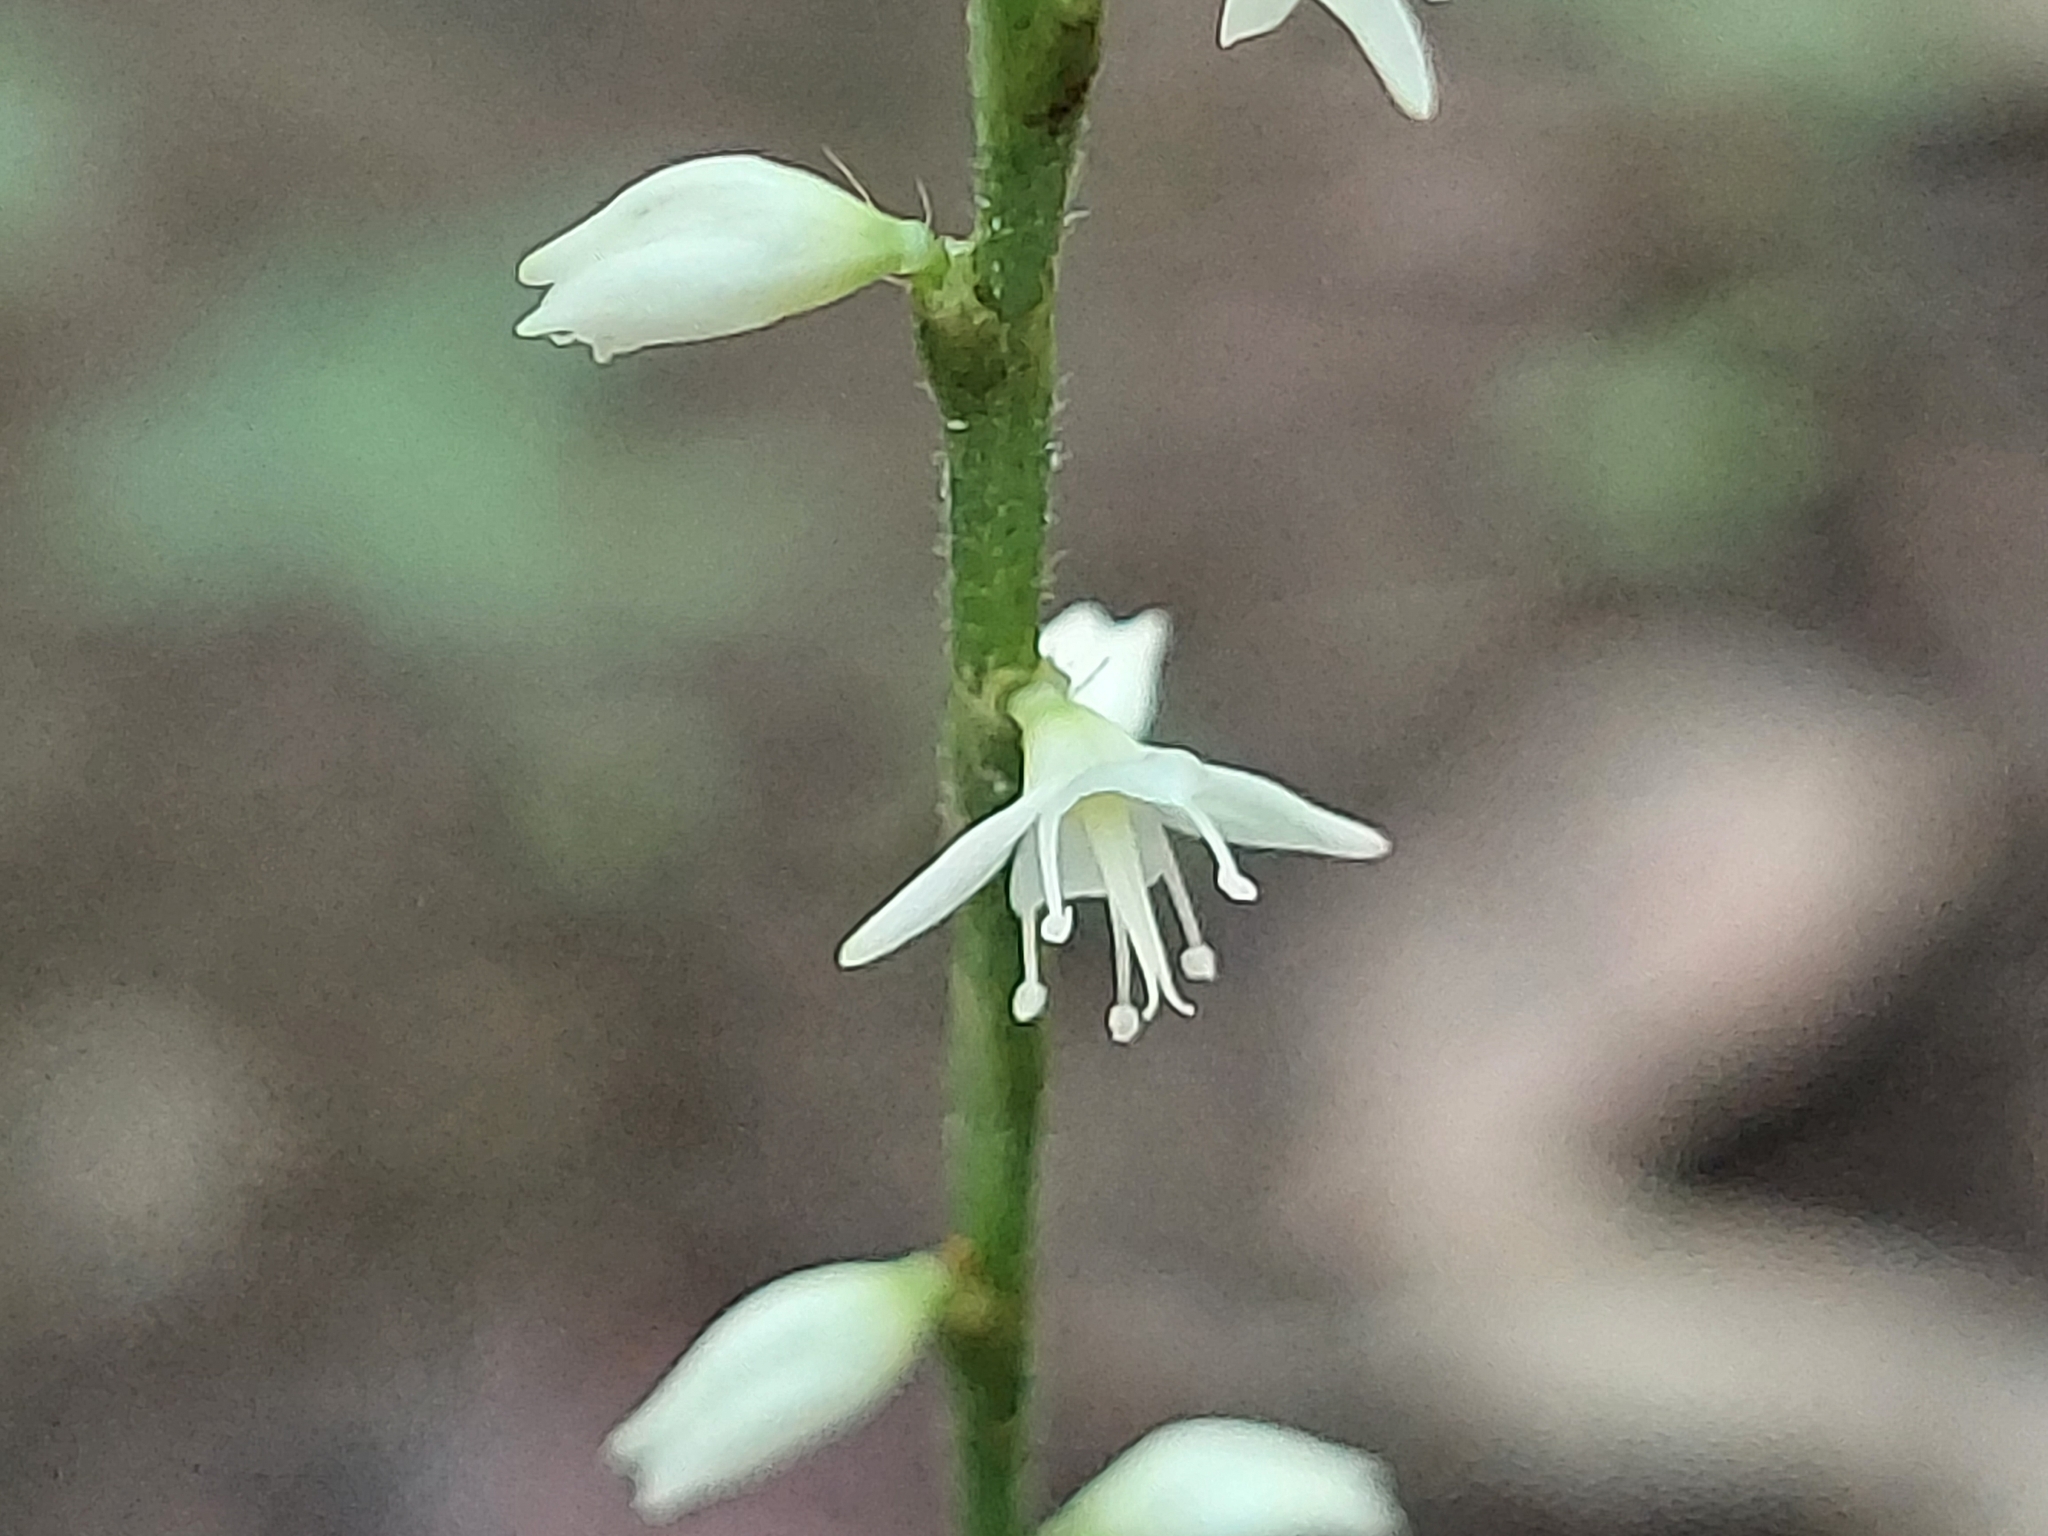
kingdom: Plantae
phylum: Tracheophyta
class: Magnoliopsida
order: Caryophyllales
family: Polygonaceae
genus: Persicaria
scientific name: Persicaria virginiana
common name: Jumpseed
